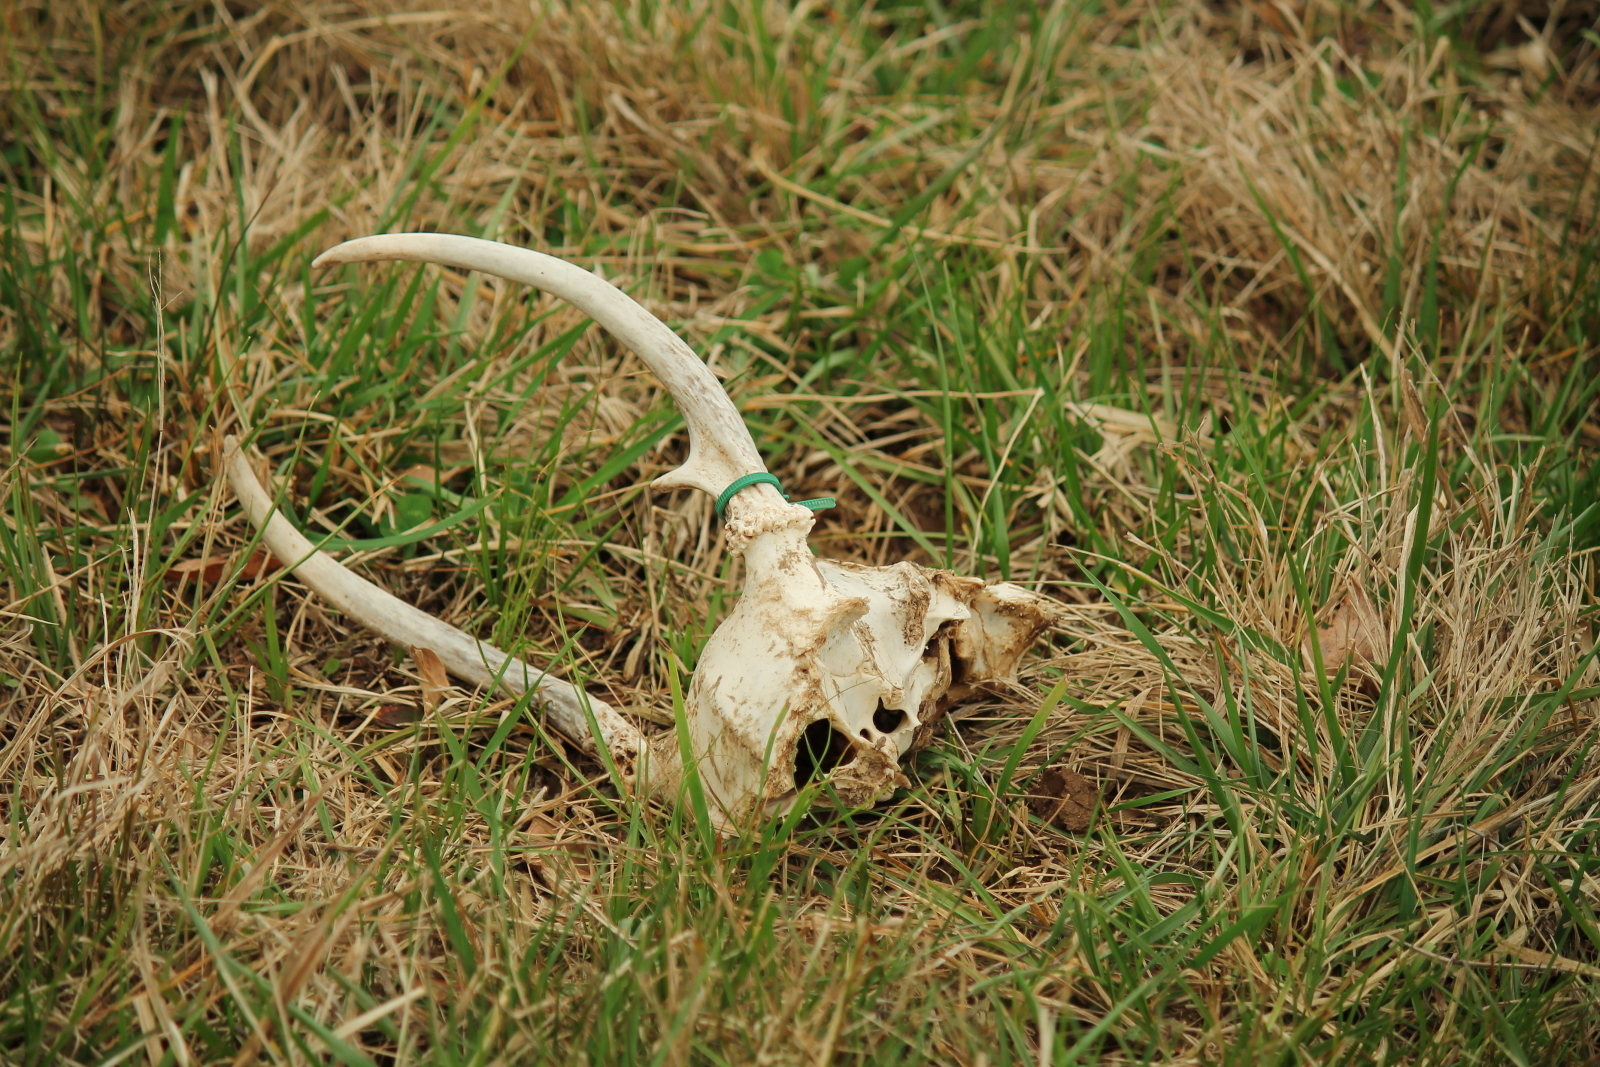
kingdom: Animalia
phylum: Chordata
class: Mammalia
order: Artiodactyla
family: Cervidae
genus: Odocoileus
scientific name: Odocoileus virginianus
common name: White-tailed deer
